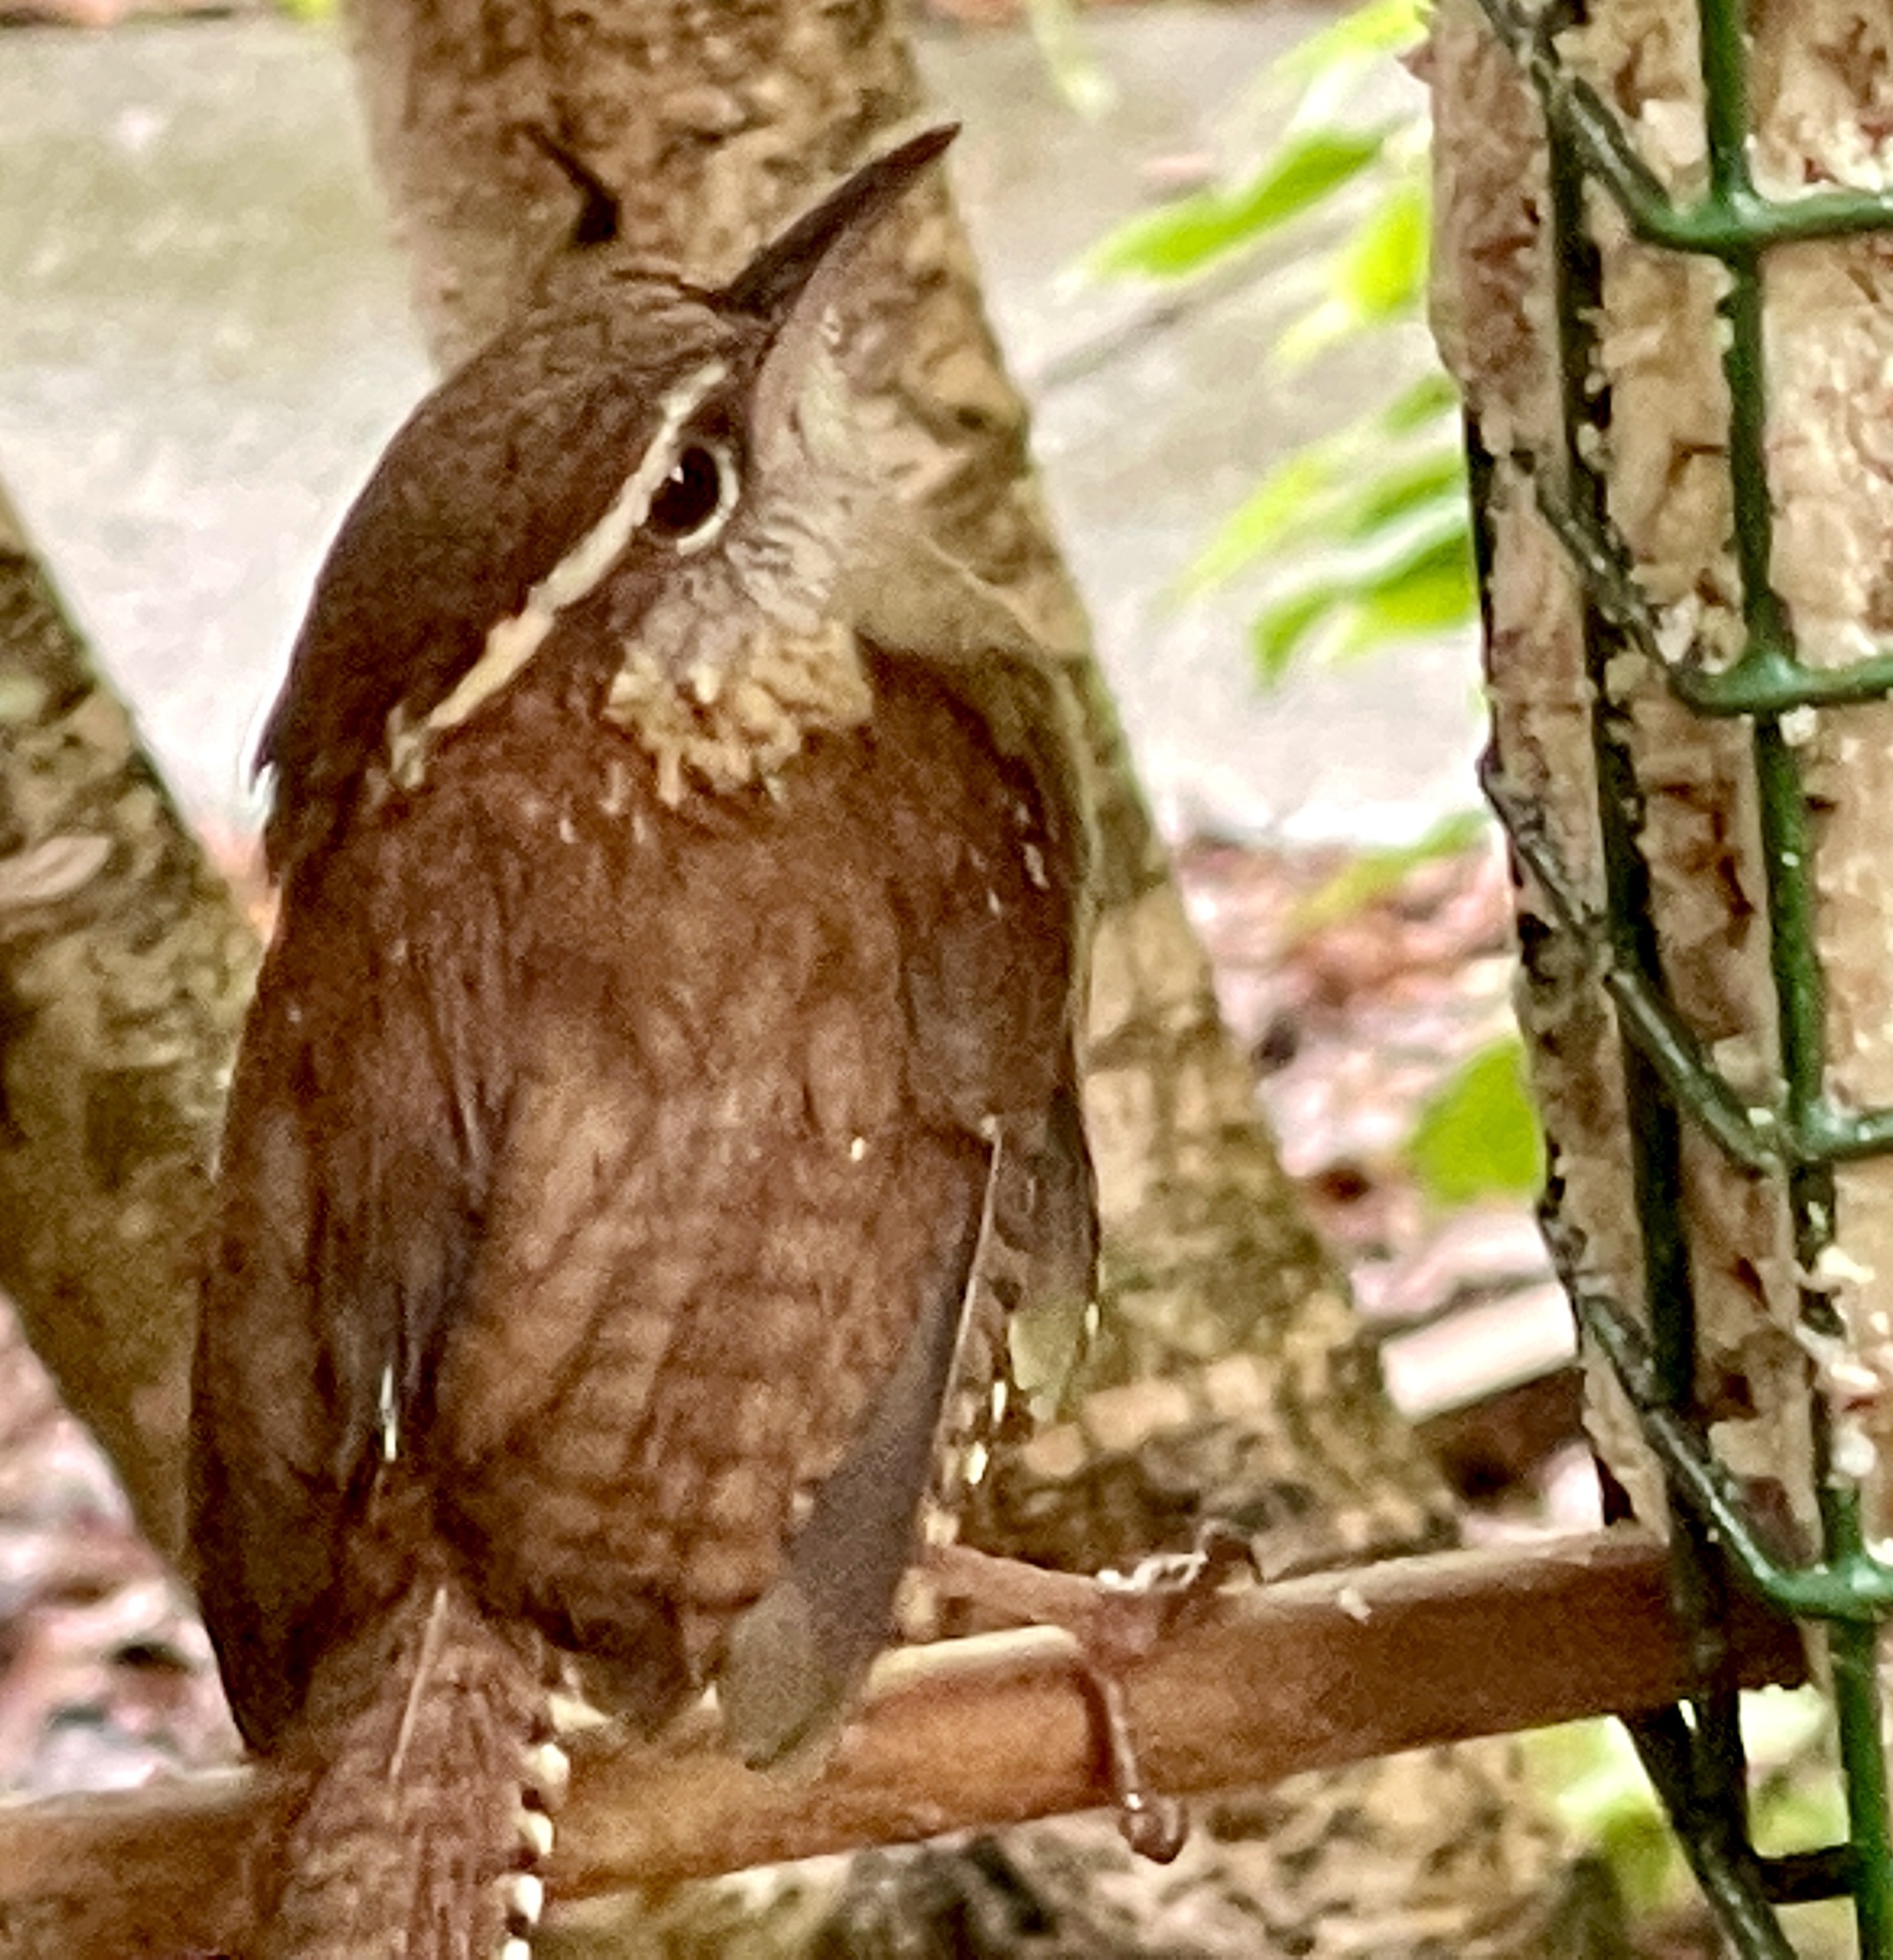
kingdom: Animalia
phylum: Chordata
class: Aves
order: Passeriformes
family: Troglodytidae
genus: Thryothorus
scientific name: Thryothorus ludovicianus
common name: Carolina wren
